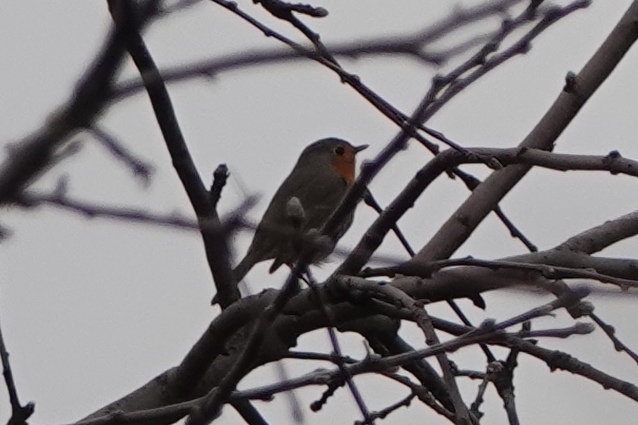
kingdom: Animalia
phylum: Chordata
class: Aves
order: Passeriformes
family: Muscicapidae
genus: Erithacus
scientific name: Erithacus rubecula
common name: European robin
